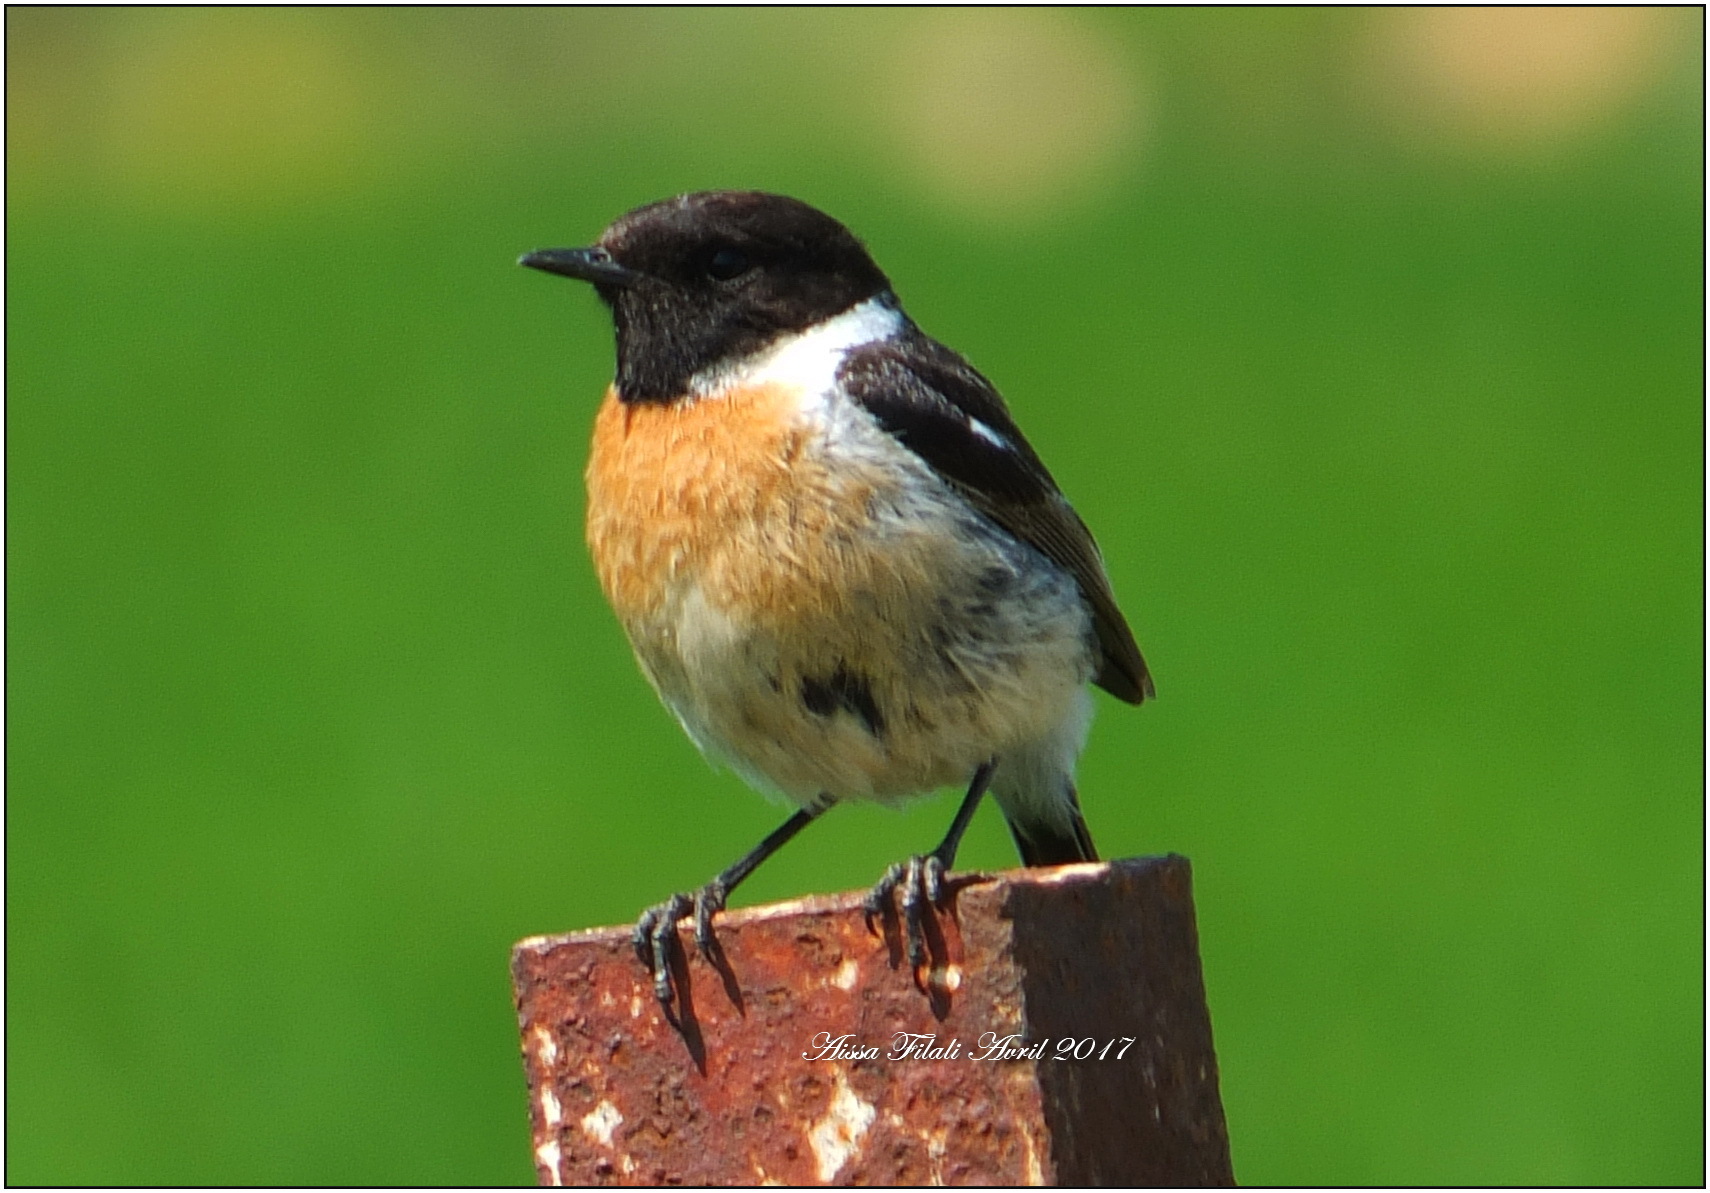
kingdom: Animalia
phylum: Chordata
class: Aves
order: Passeriformes
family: Muscicapidae
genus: Saxicola
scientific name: Saxicola rubicola
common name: European stonechat
